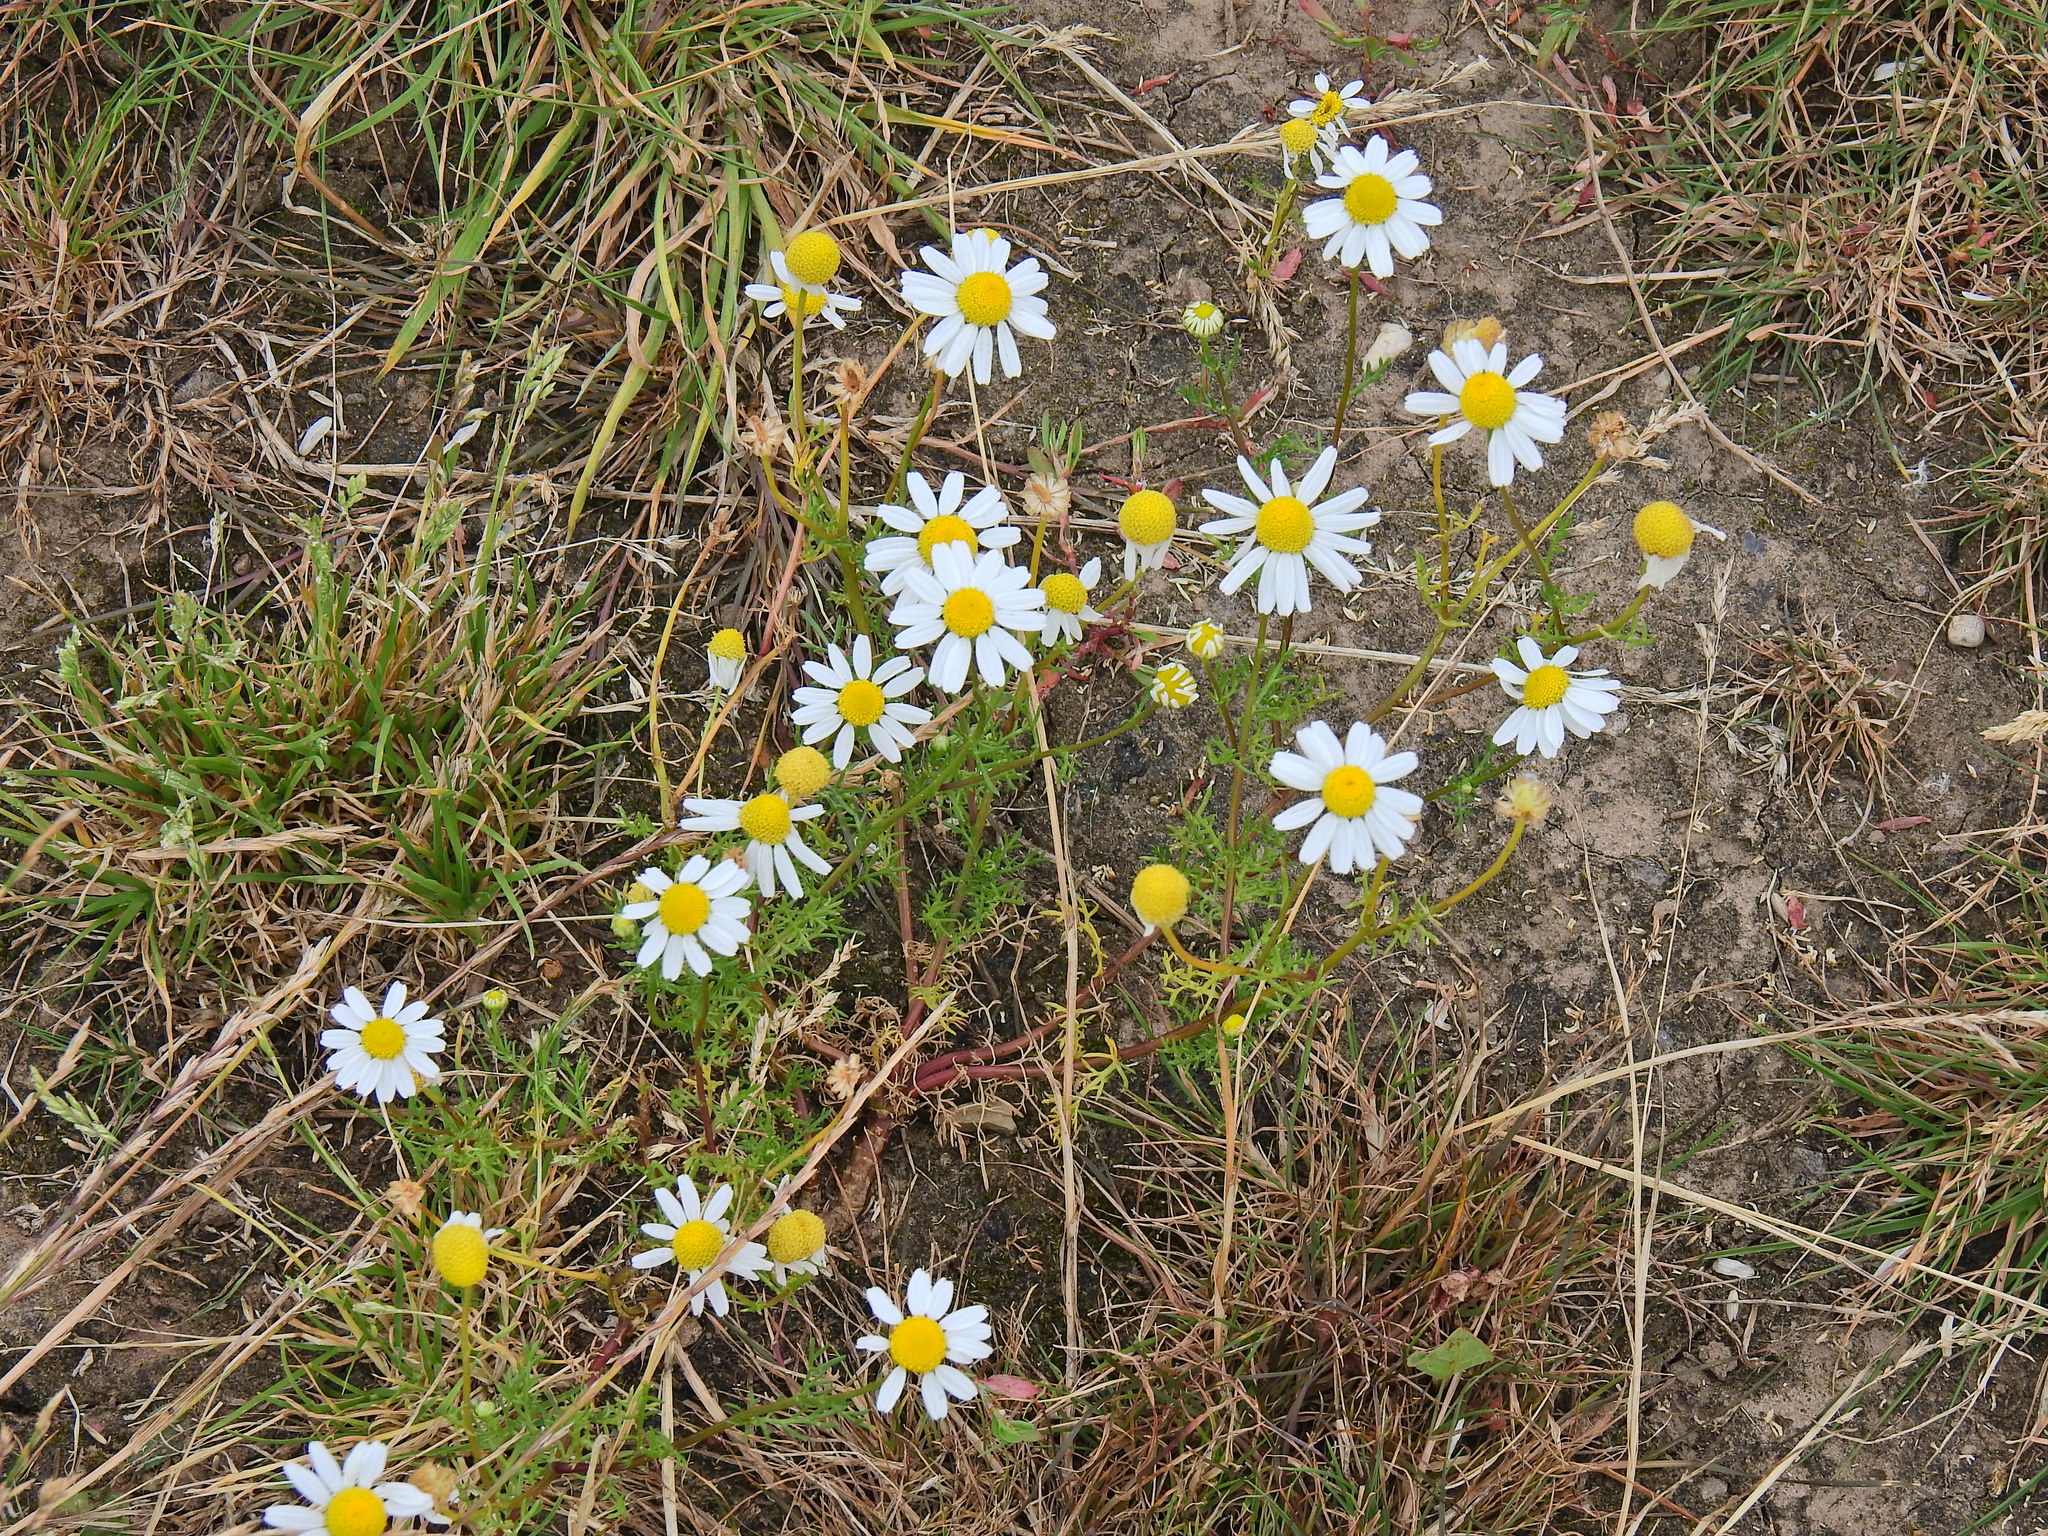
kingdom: Plantae
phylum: Tracheophyta
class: Magnoliopsida
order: Asterales
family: Asteraceae
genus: Tripleurospermum
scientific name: Tripleurospermum inodorum
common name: Scentless mayweed
